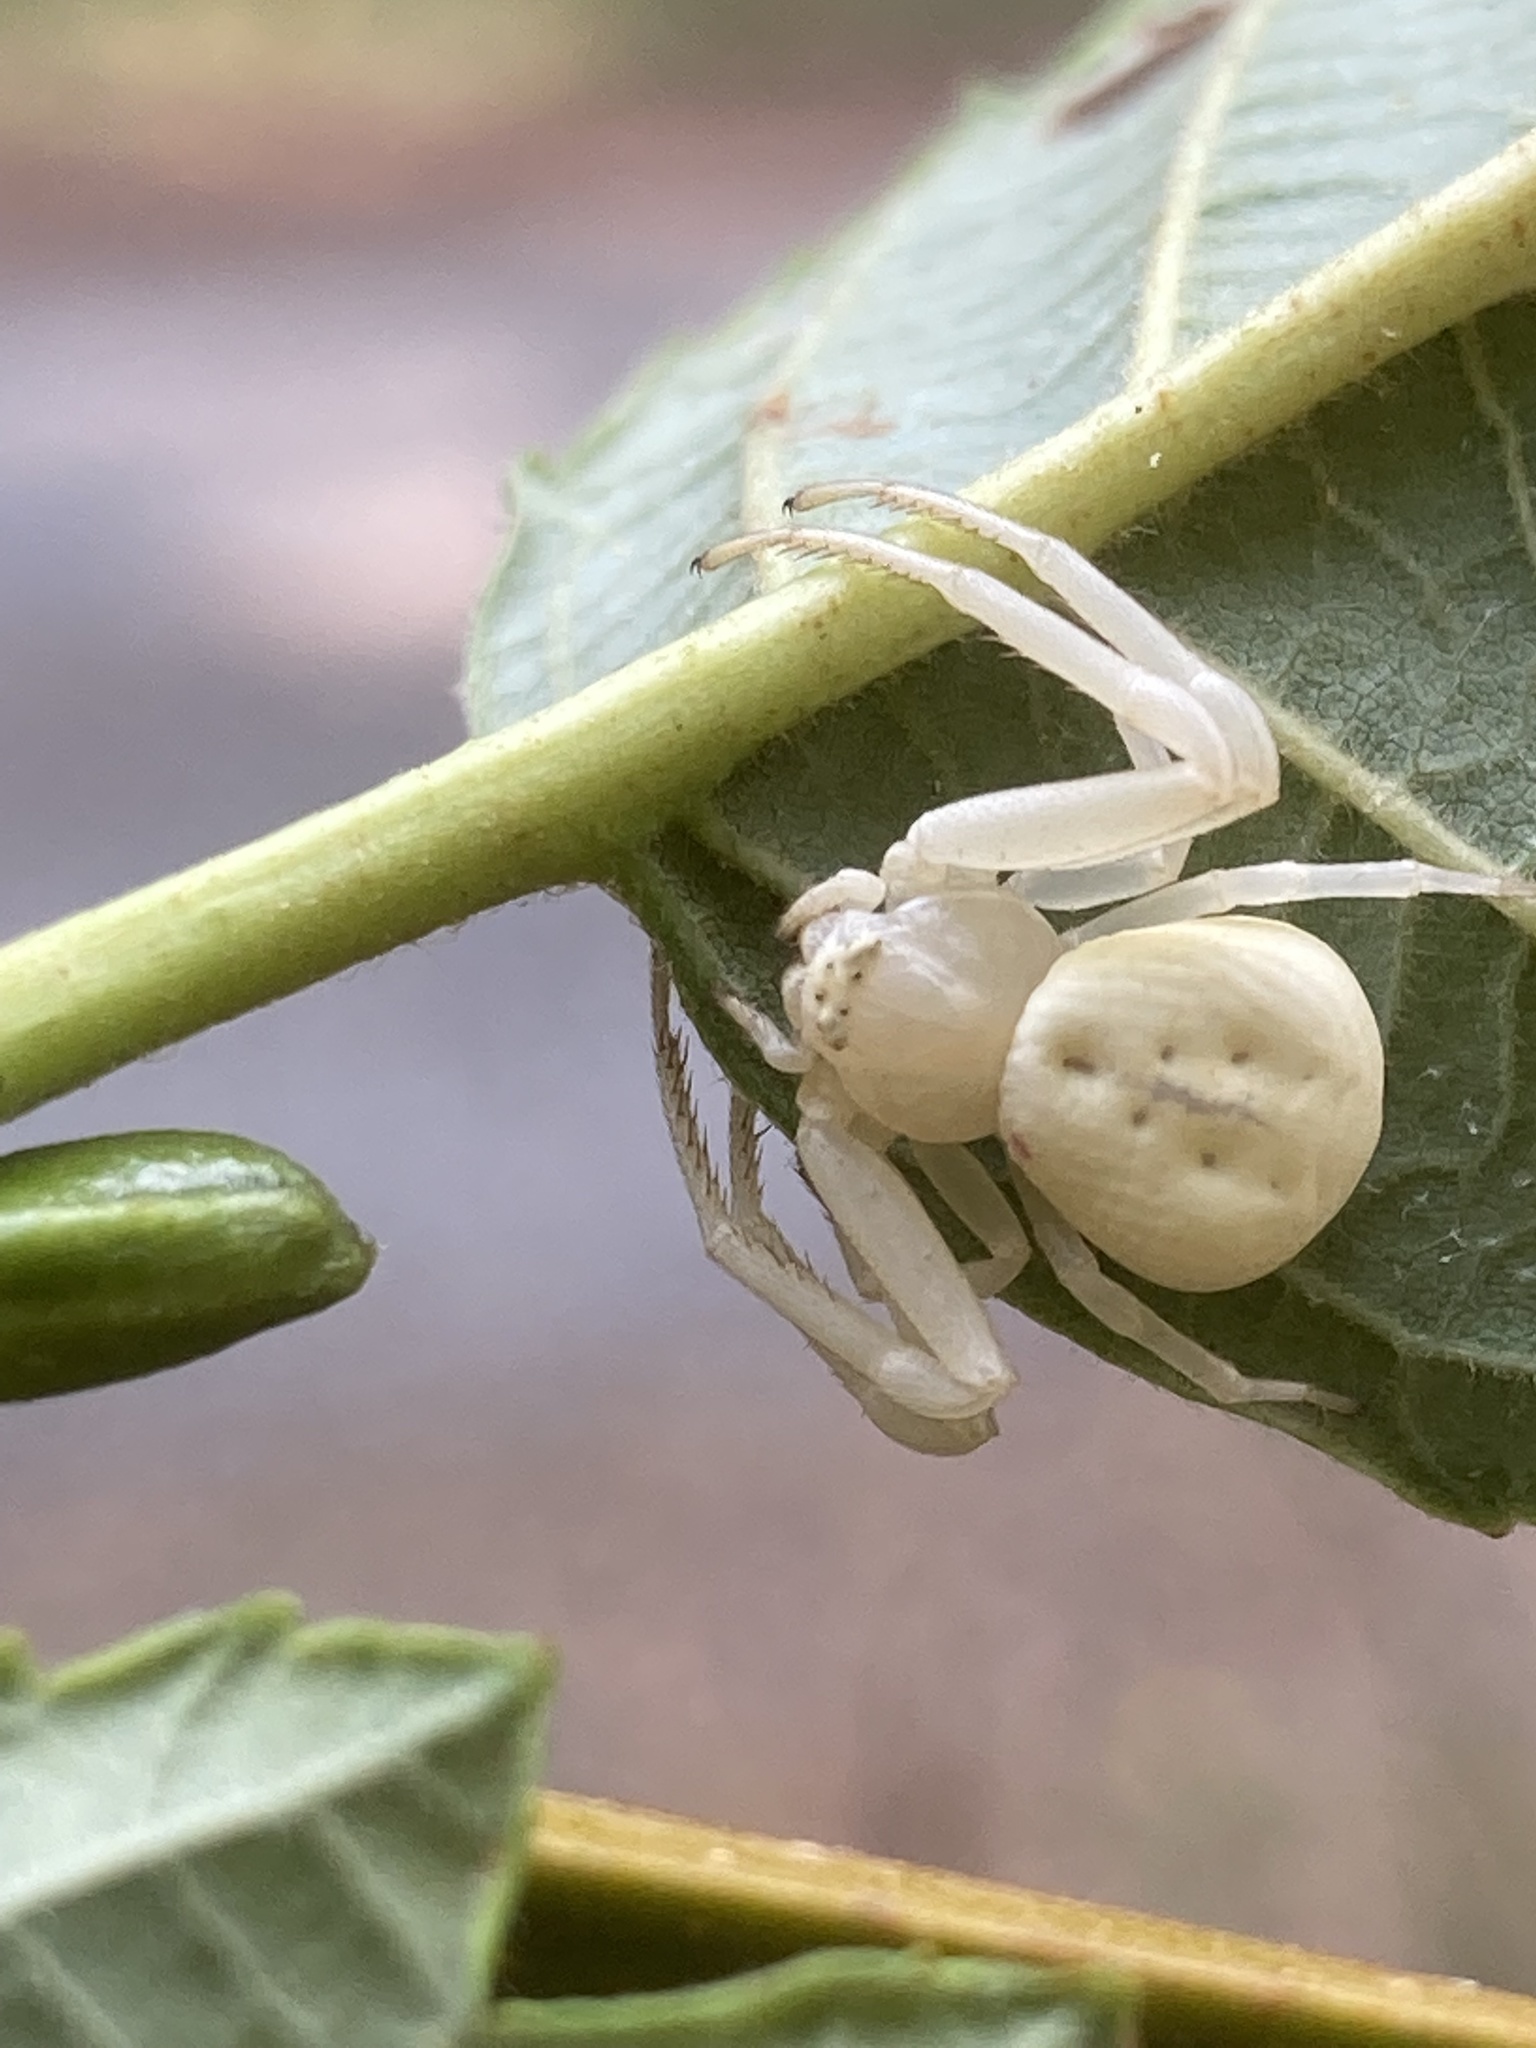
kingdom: Animalia
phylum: Arthropoda
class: Arachnida
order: Araneae
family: Thomisidae
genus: Misumena
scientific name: Misumena vatia
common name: Goldenrod crab spider
